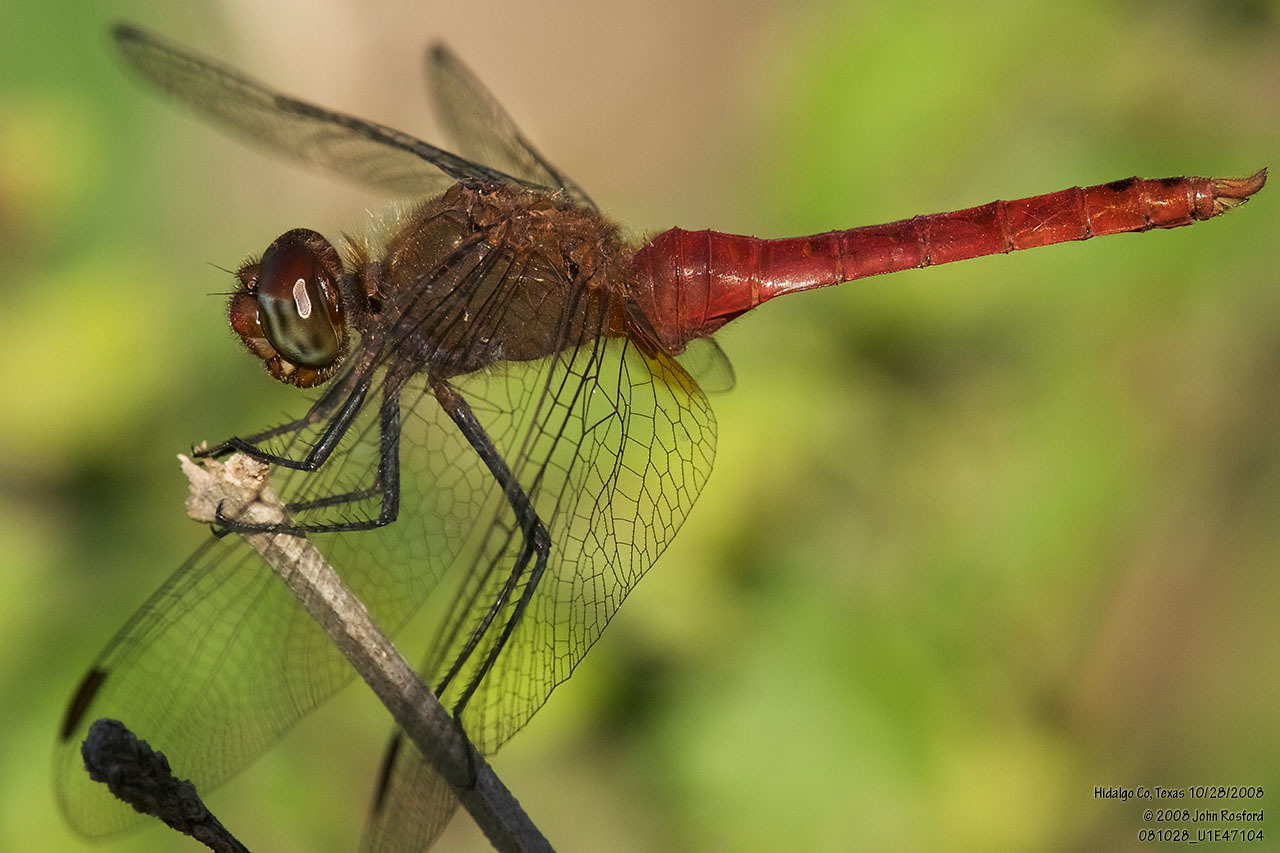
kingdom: Animalia
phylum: Arthropoda
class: Insecta
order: Odonata
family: Libellulidae
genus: Brachymesia
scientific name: Brachymesia furcata
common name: Red-taled pennant
